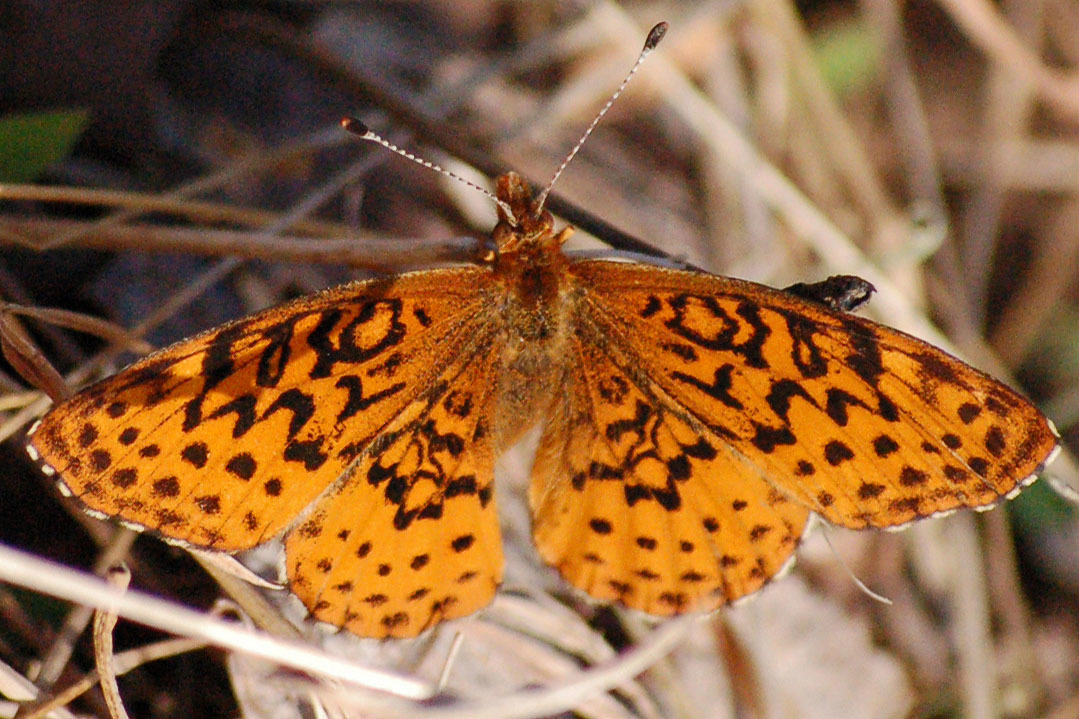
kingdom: Animalia
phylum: Arthropoda
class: Insecta
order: Lepidoptera
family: Nymphalidae
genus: Clossiana
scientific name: Clossiana toddi
